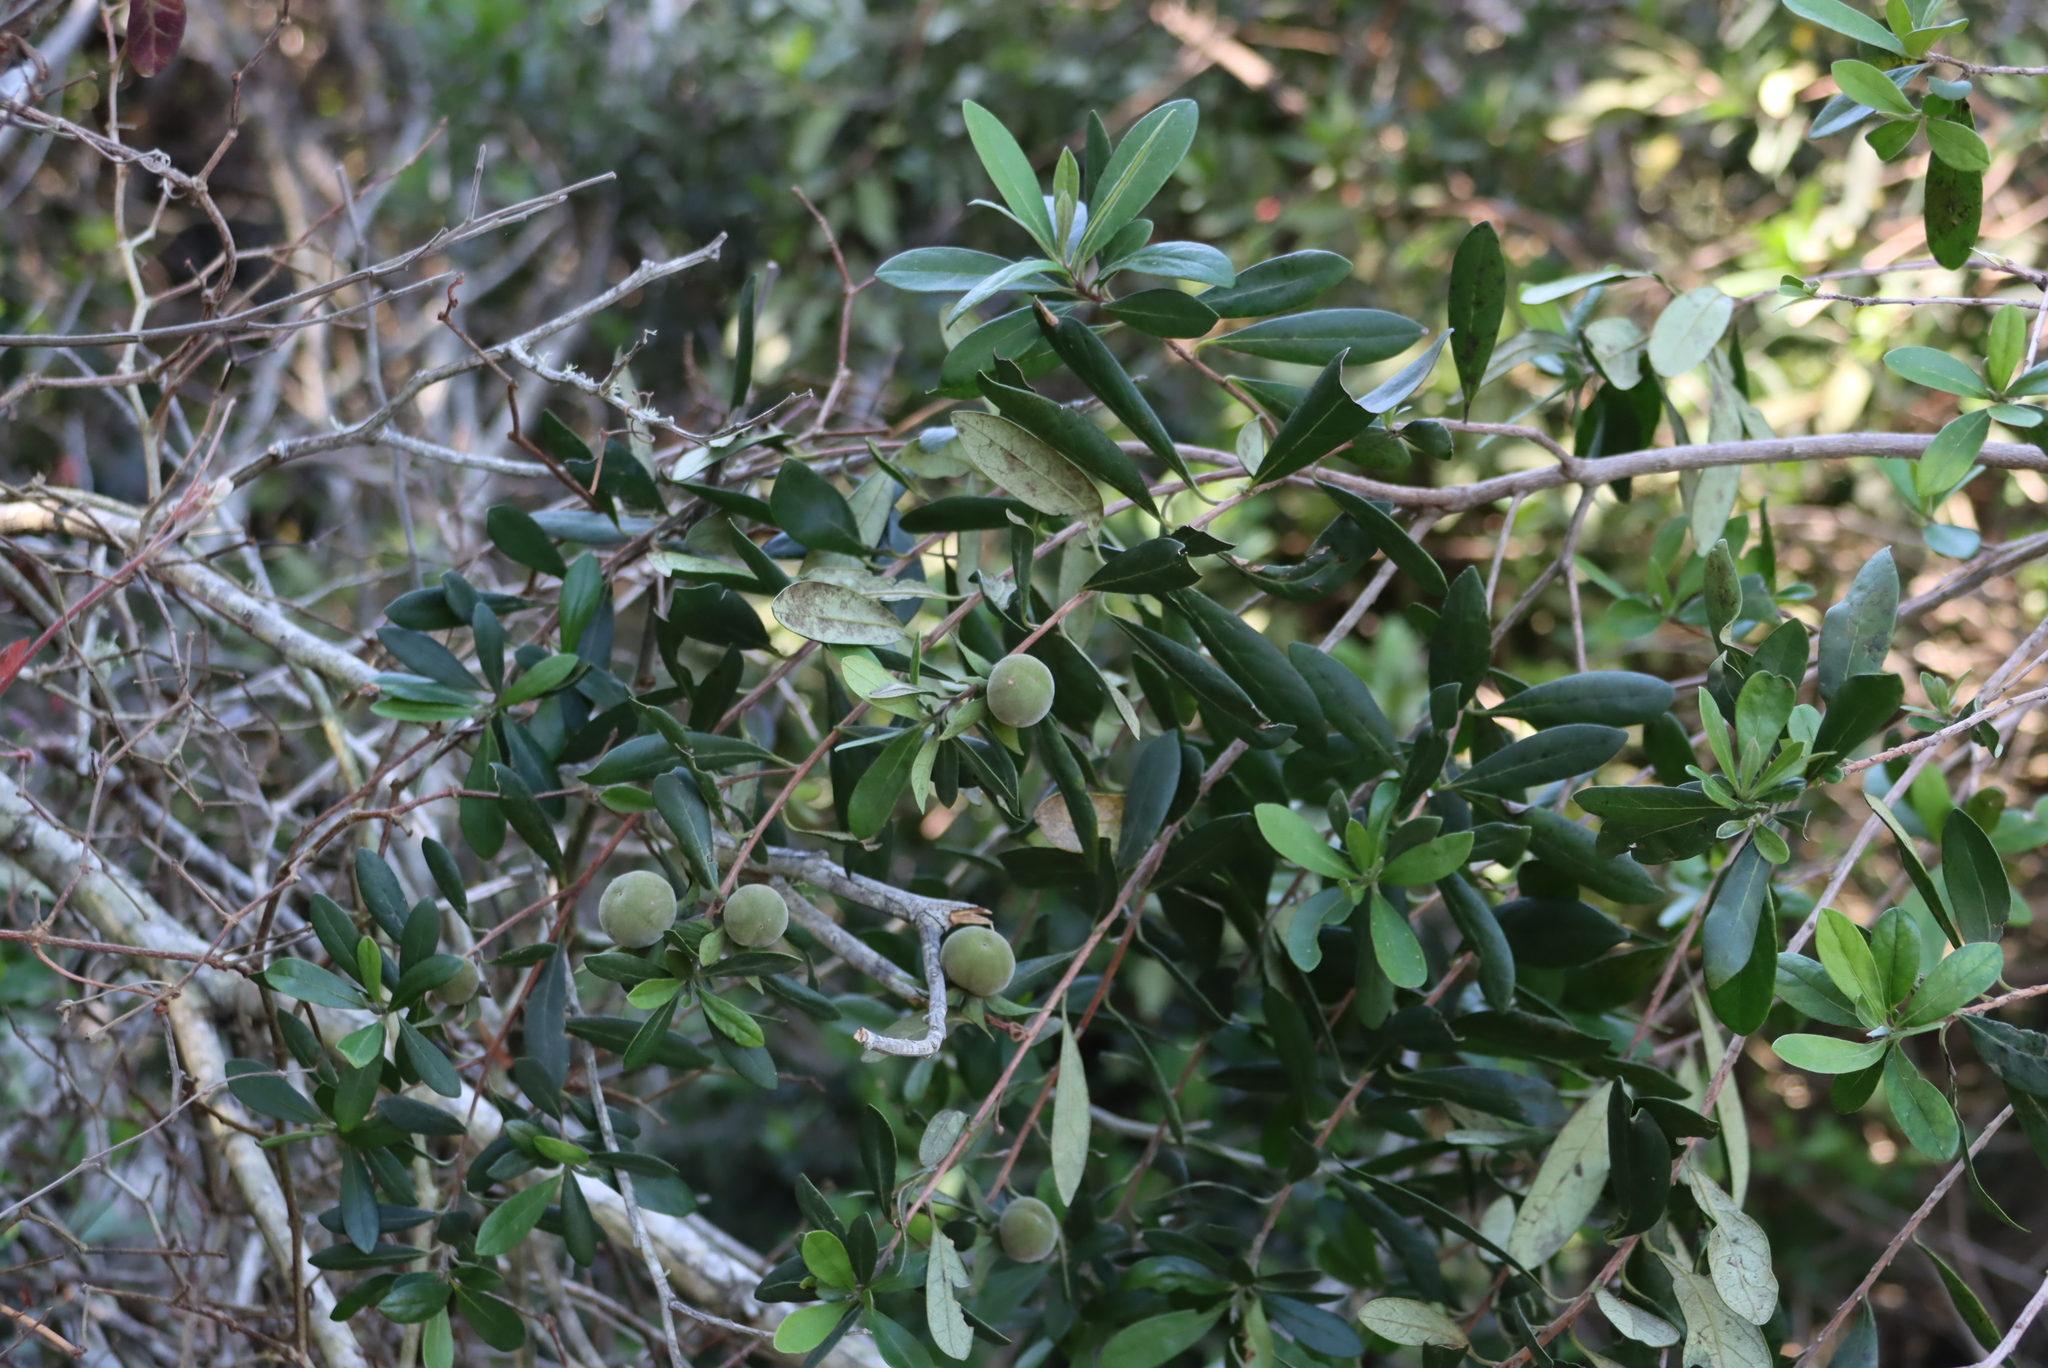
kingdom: Plantae
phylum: Tracheophyta
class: Magnoliopsida
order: Ericales
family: Ebenaceae
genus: Diospyros
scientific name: Diospyros dichrophylla
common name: Common star-apple
